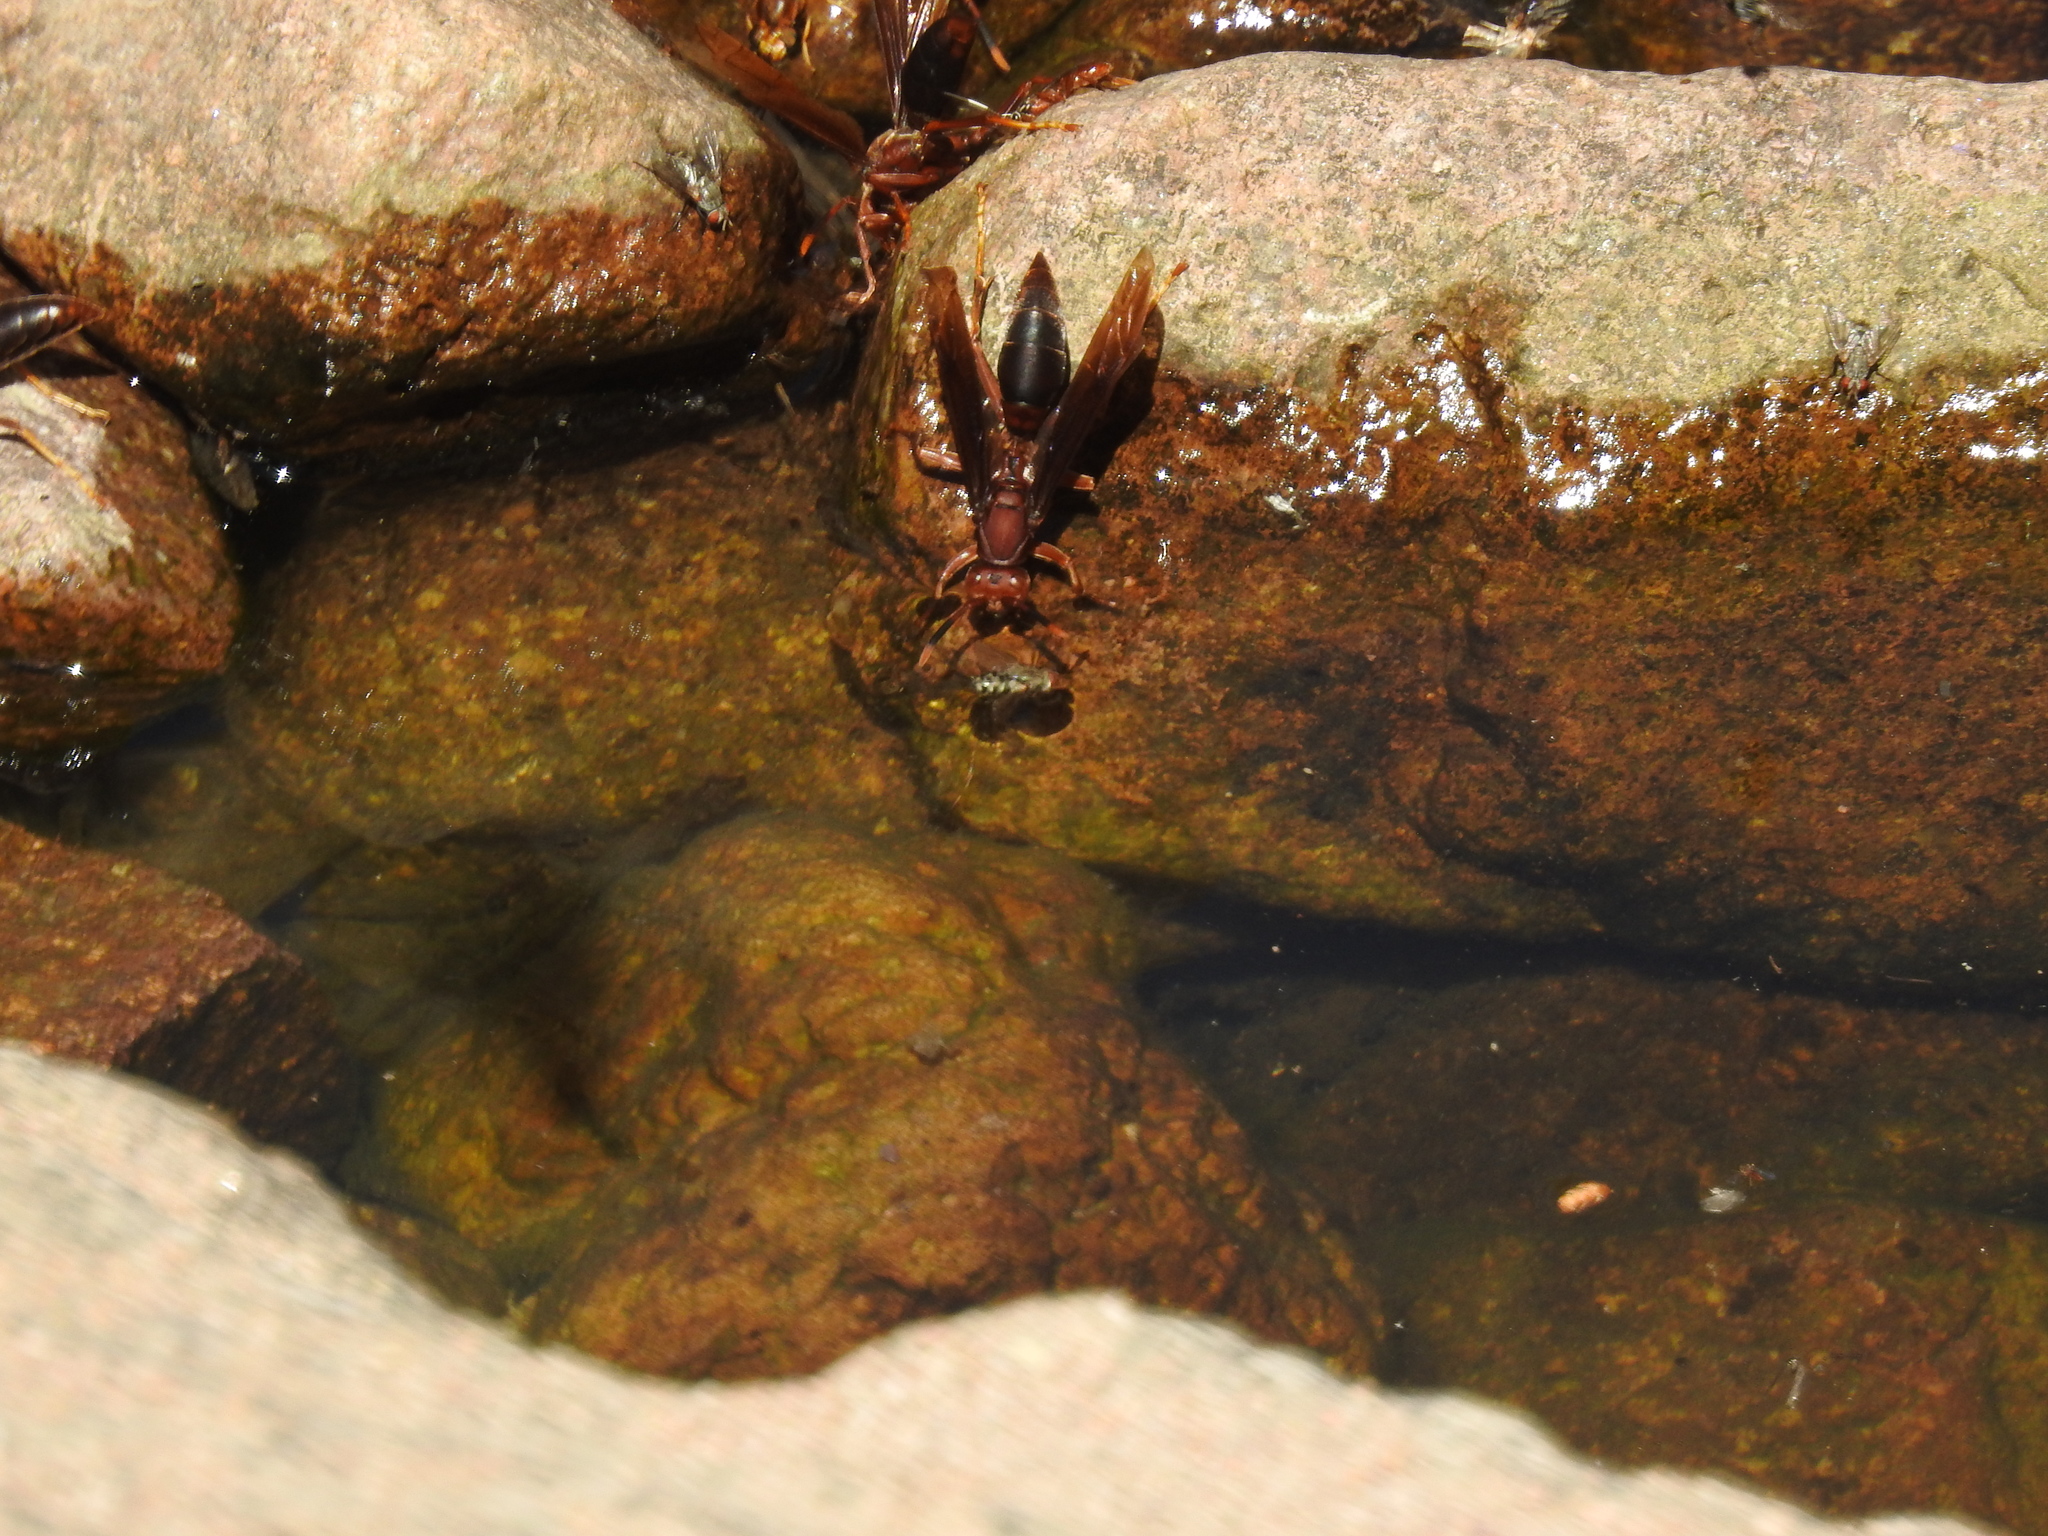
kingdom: Animalia
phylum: Arthropoda
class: Insecta
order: Hymenoptera
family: Eumenidae
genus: Polistes
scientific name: Polistes major
